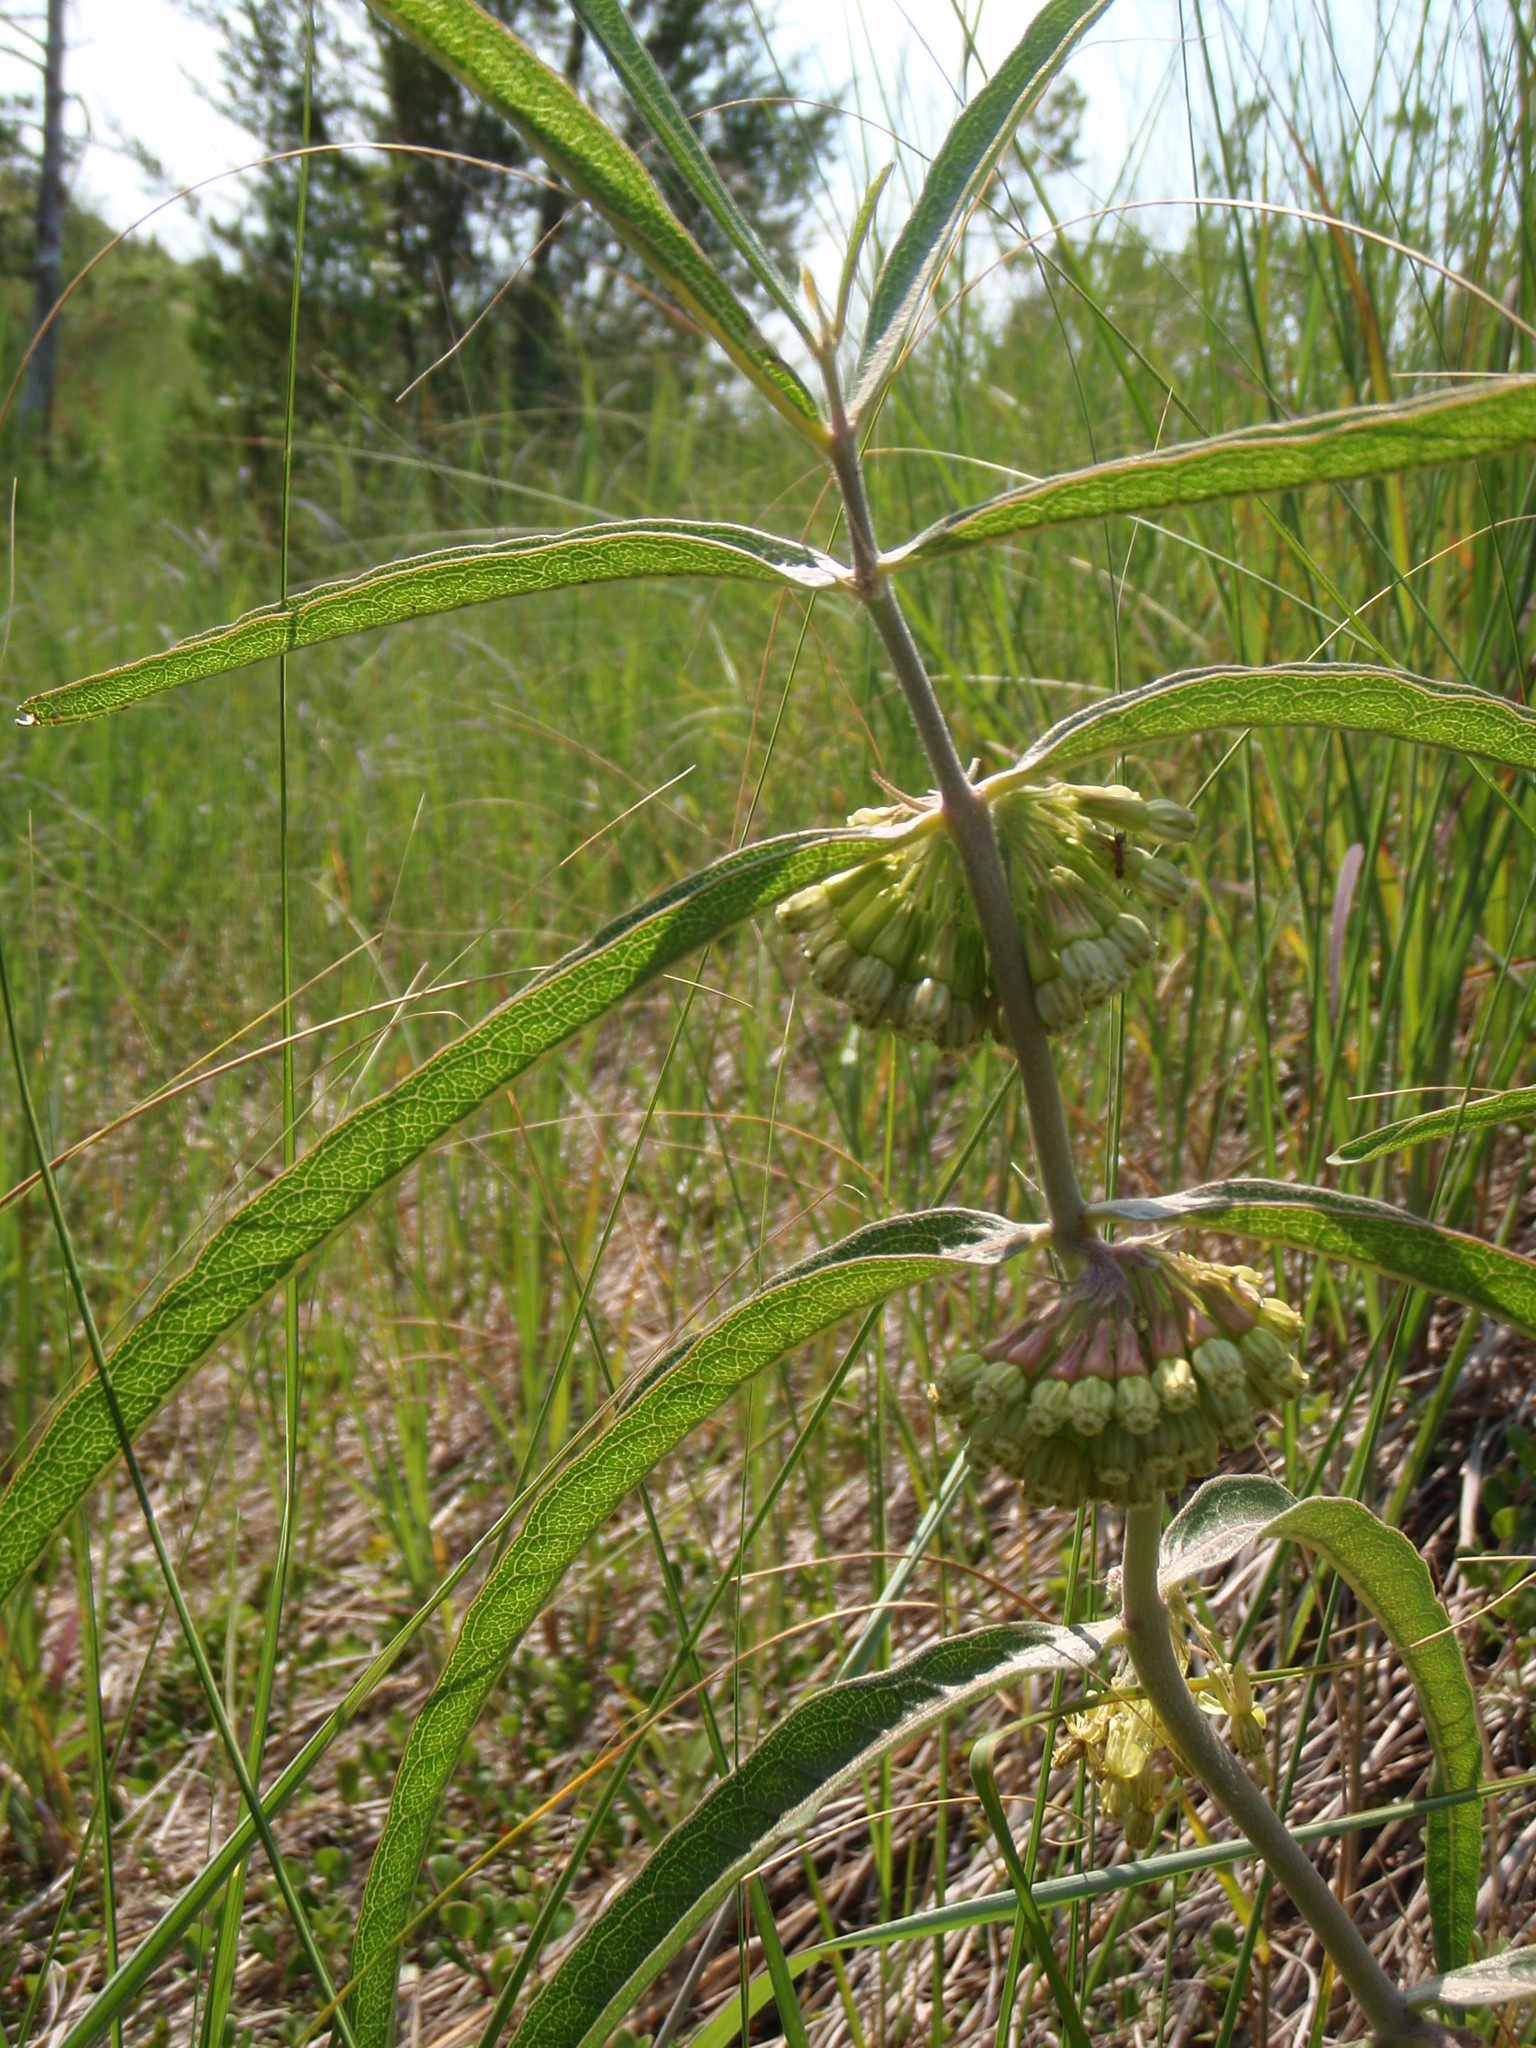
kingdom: Plantae
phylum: Tracheophyta
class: Magnoliopsida
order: Gentianales
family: Apocynaceae
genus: Asclepias
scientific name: Asclepias viridiflora
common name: Green comet milkweed
